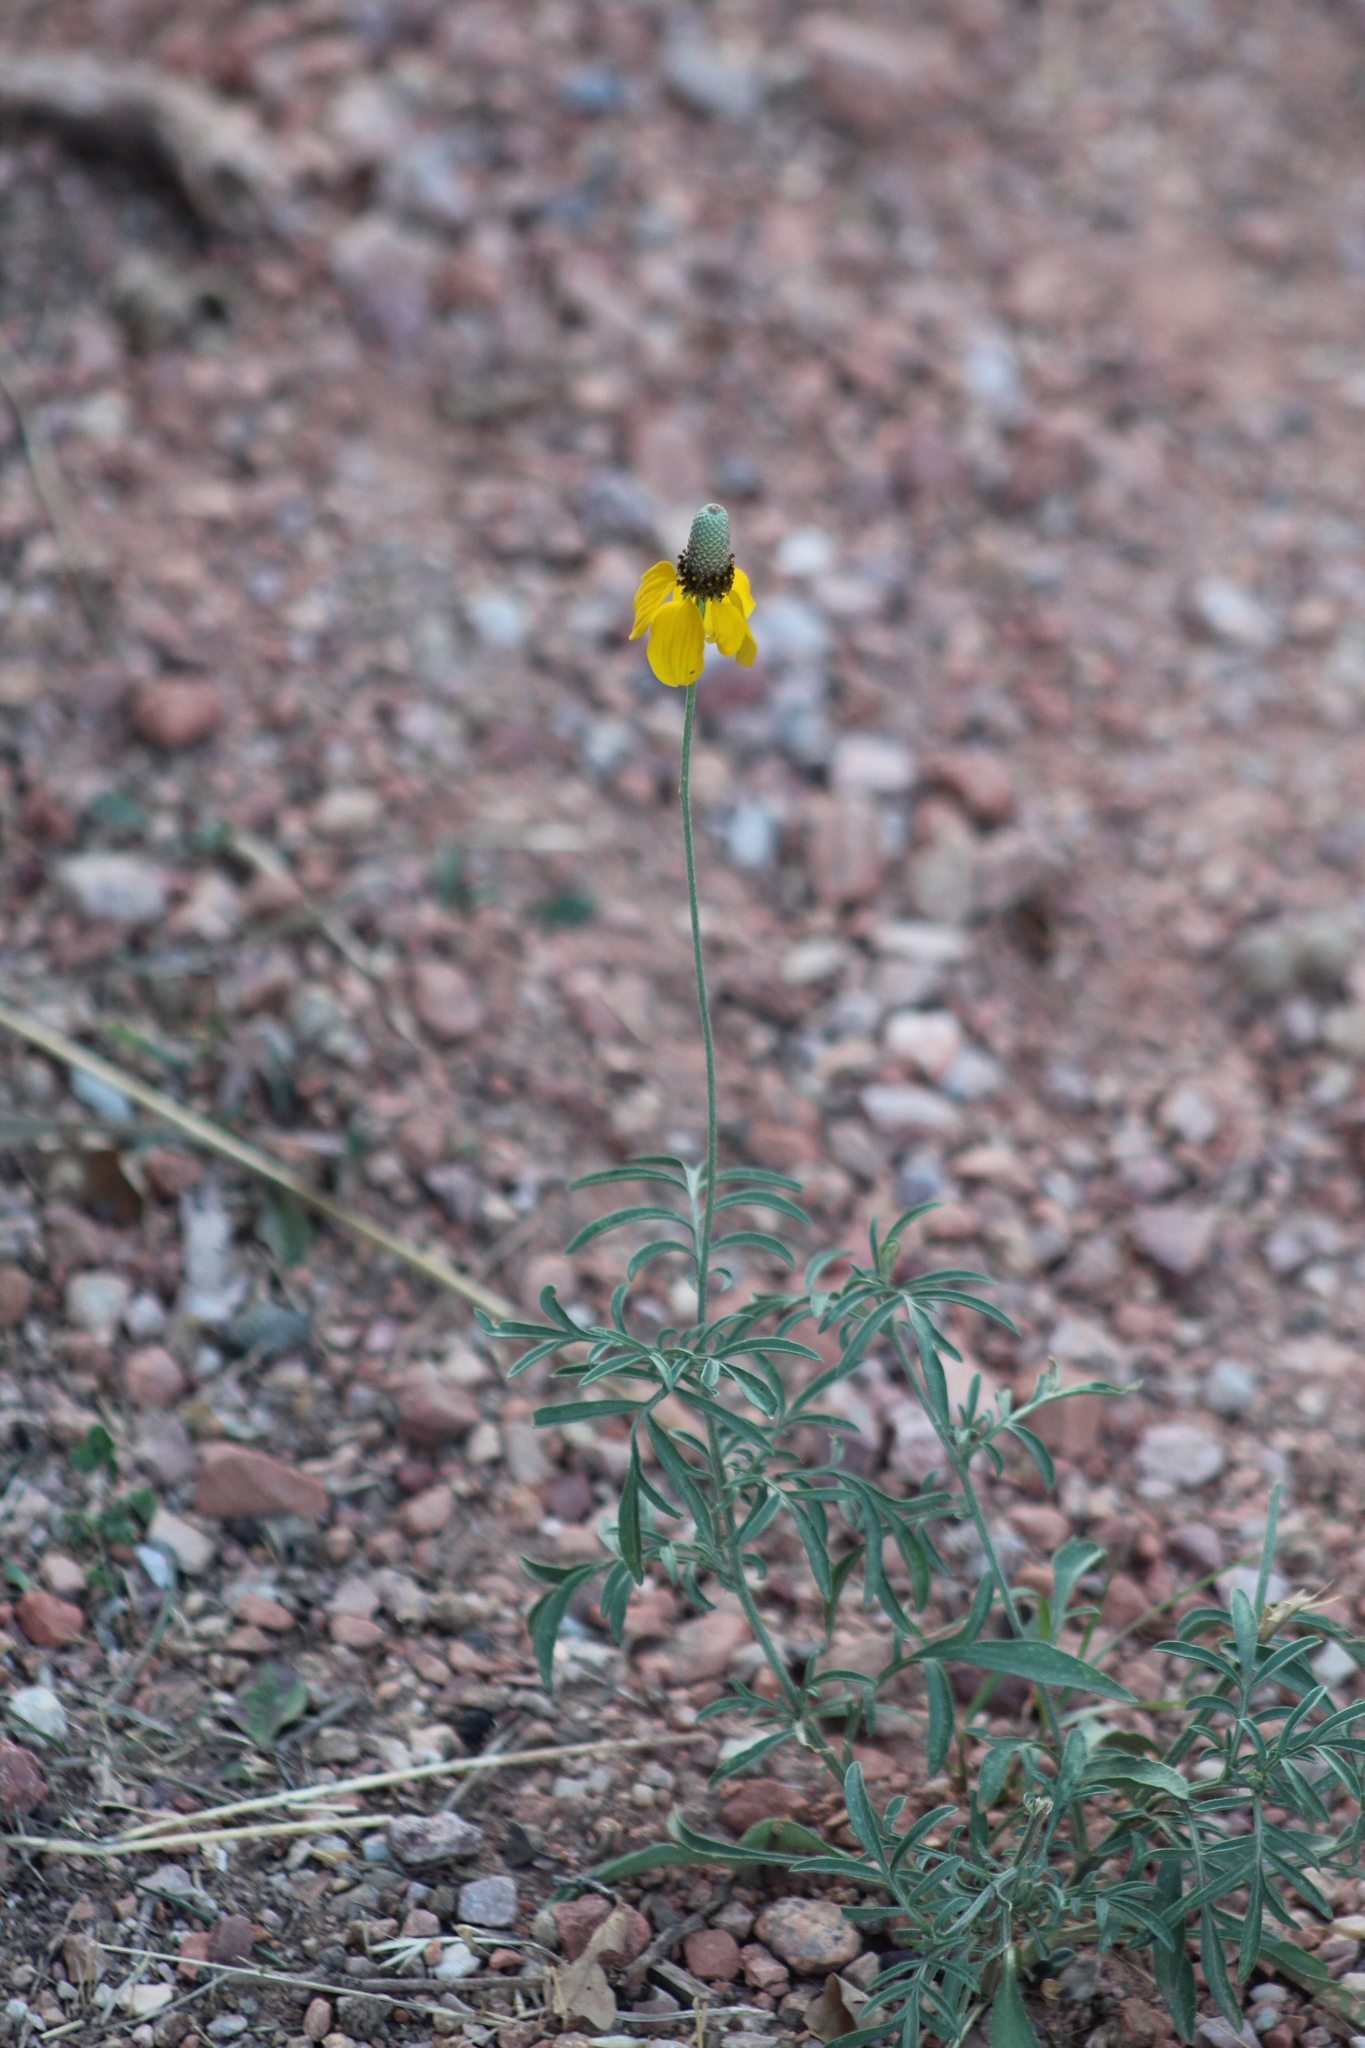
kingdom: Plantae
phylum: Tracheophyta
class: Magnoliopsida
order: Asterales
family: Asteraceae
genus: Ratibida
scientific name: Ratibida columnifera
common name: Prairie coneflower
